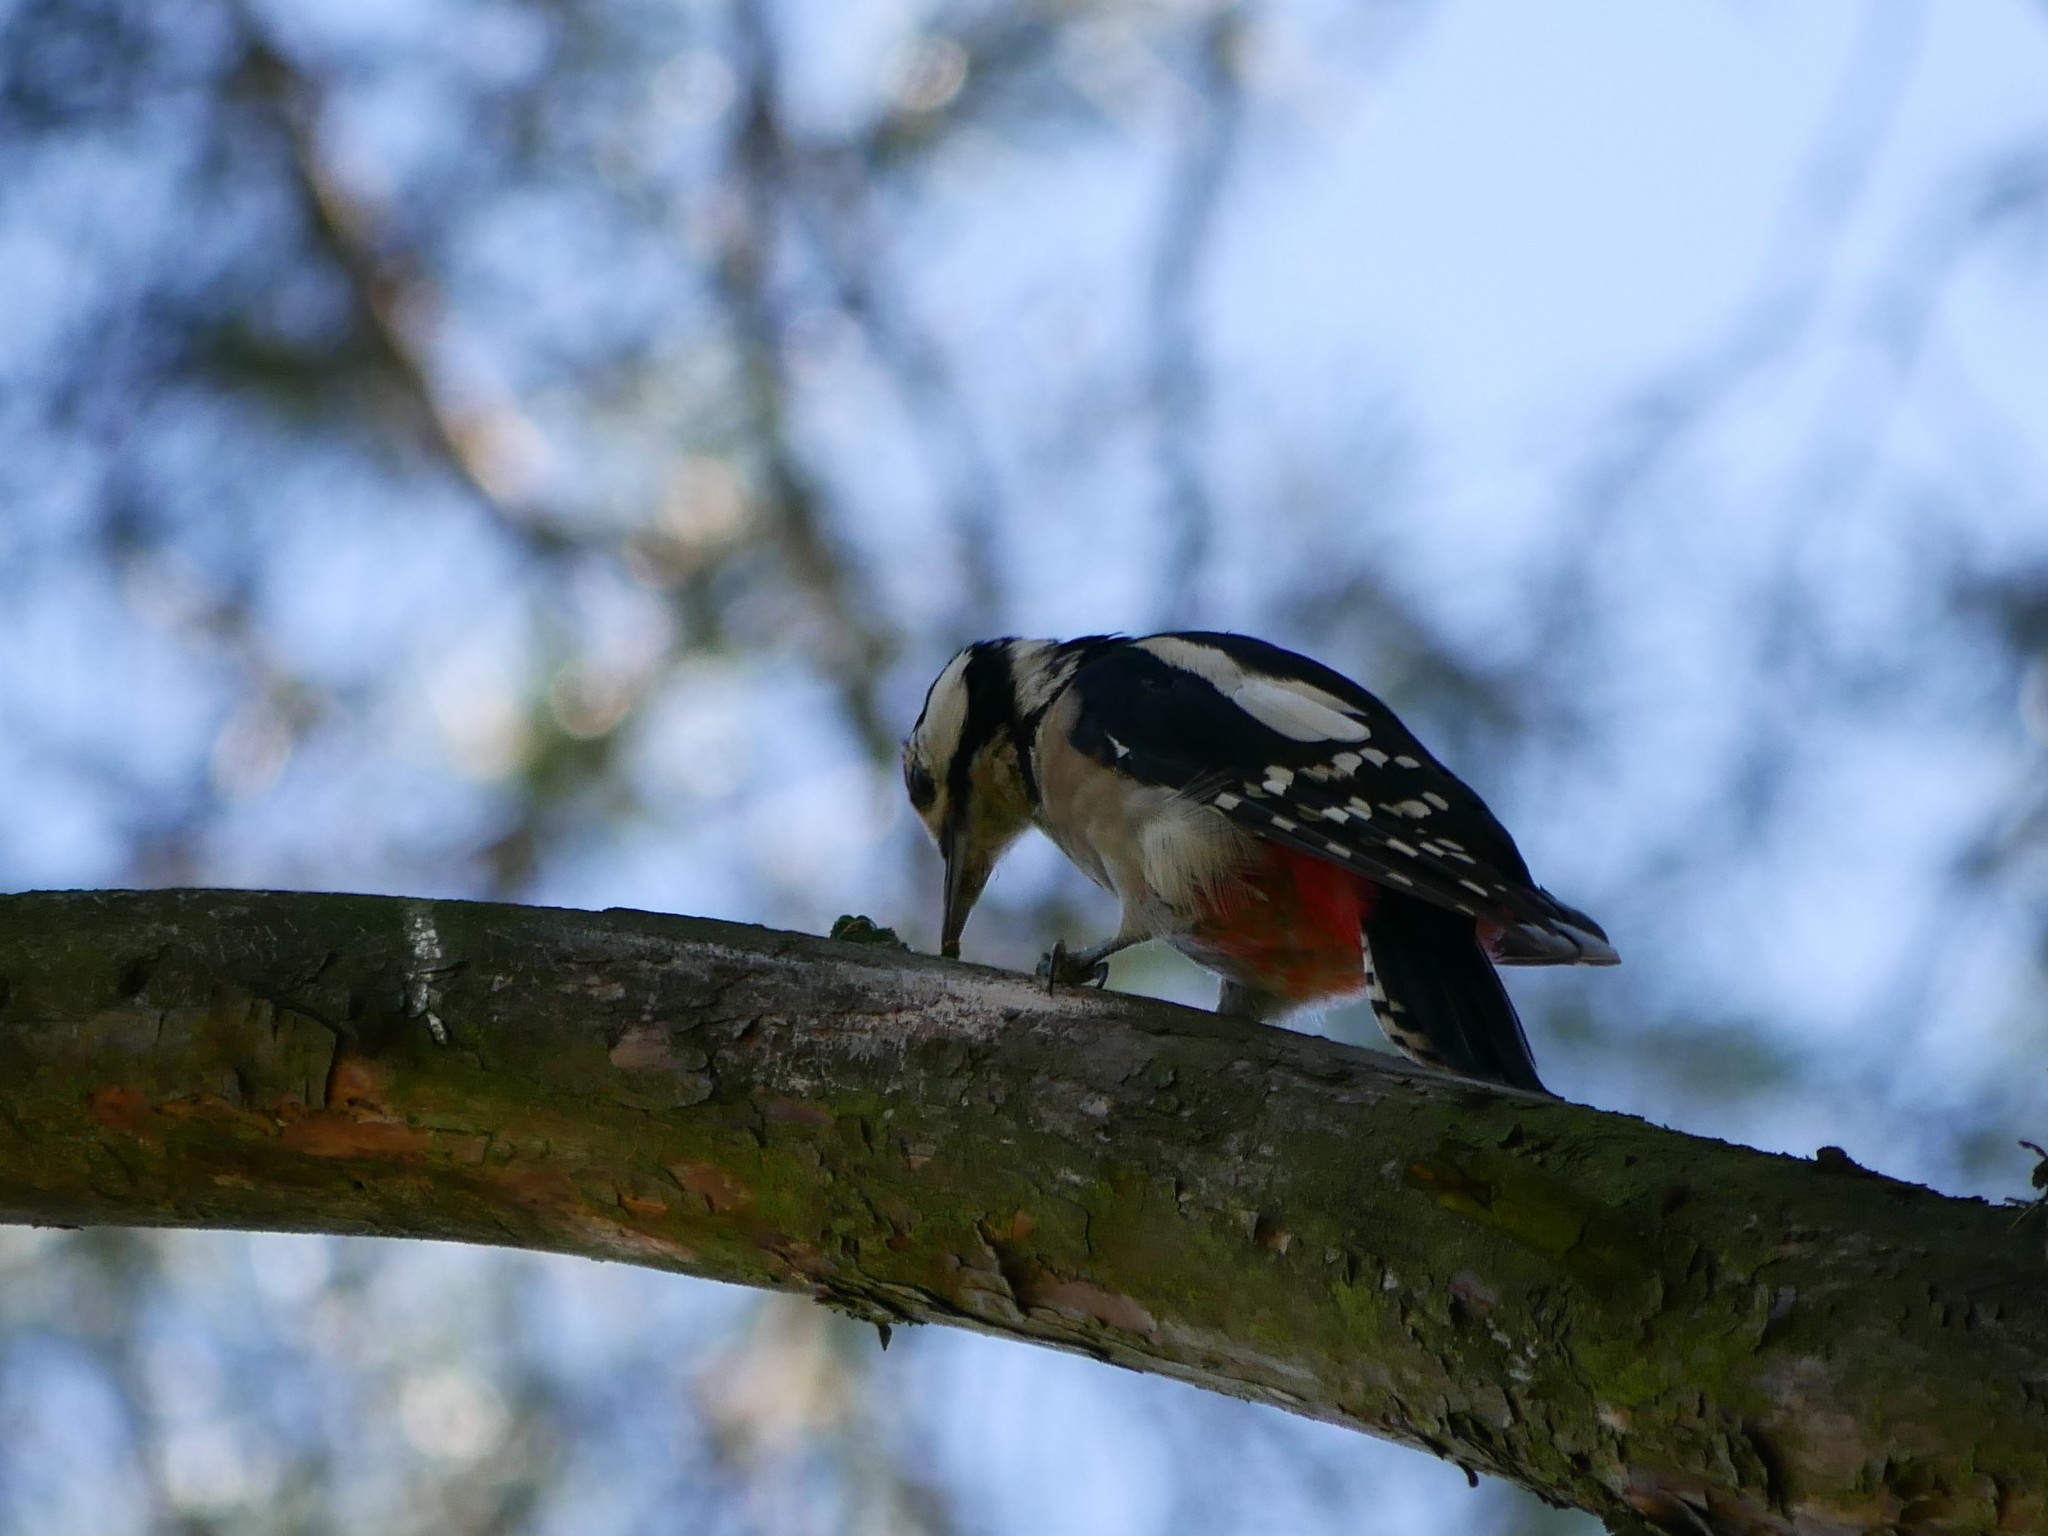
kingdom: Animalia
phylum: Chordata
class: Aves
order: Piciformes
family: Picidae
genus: Dendrocopos
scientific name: Dendrocopos major
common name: Great spotted woodpecker
